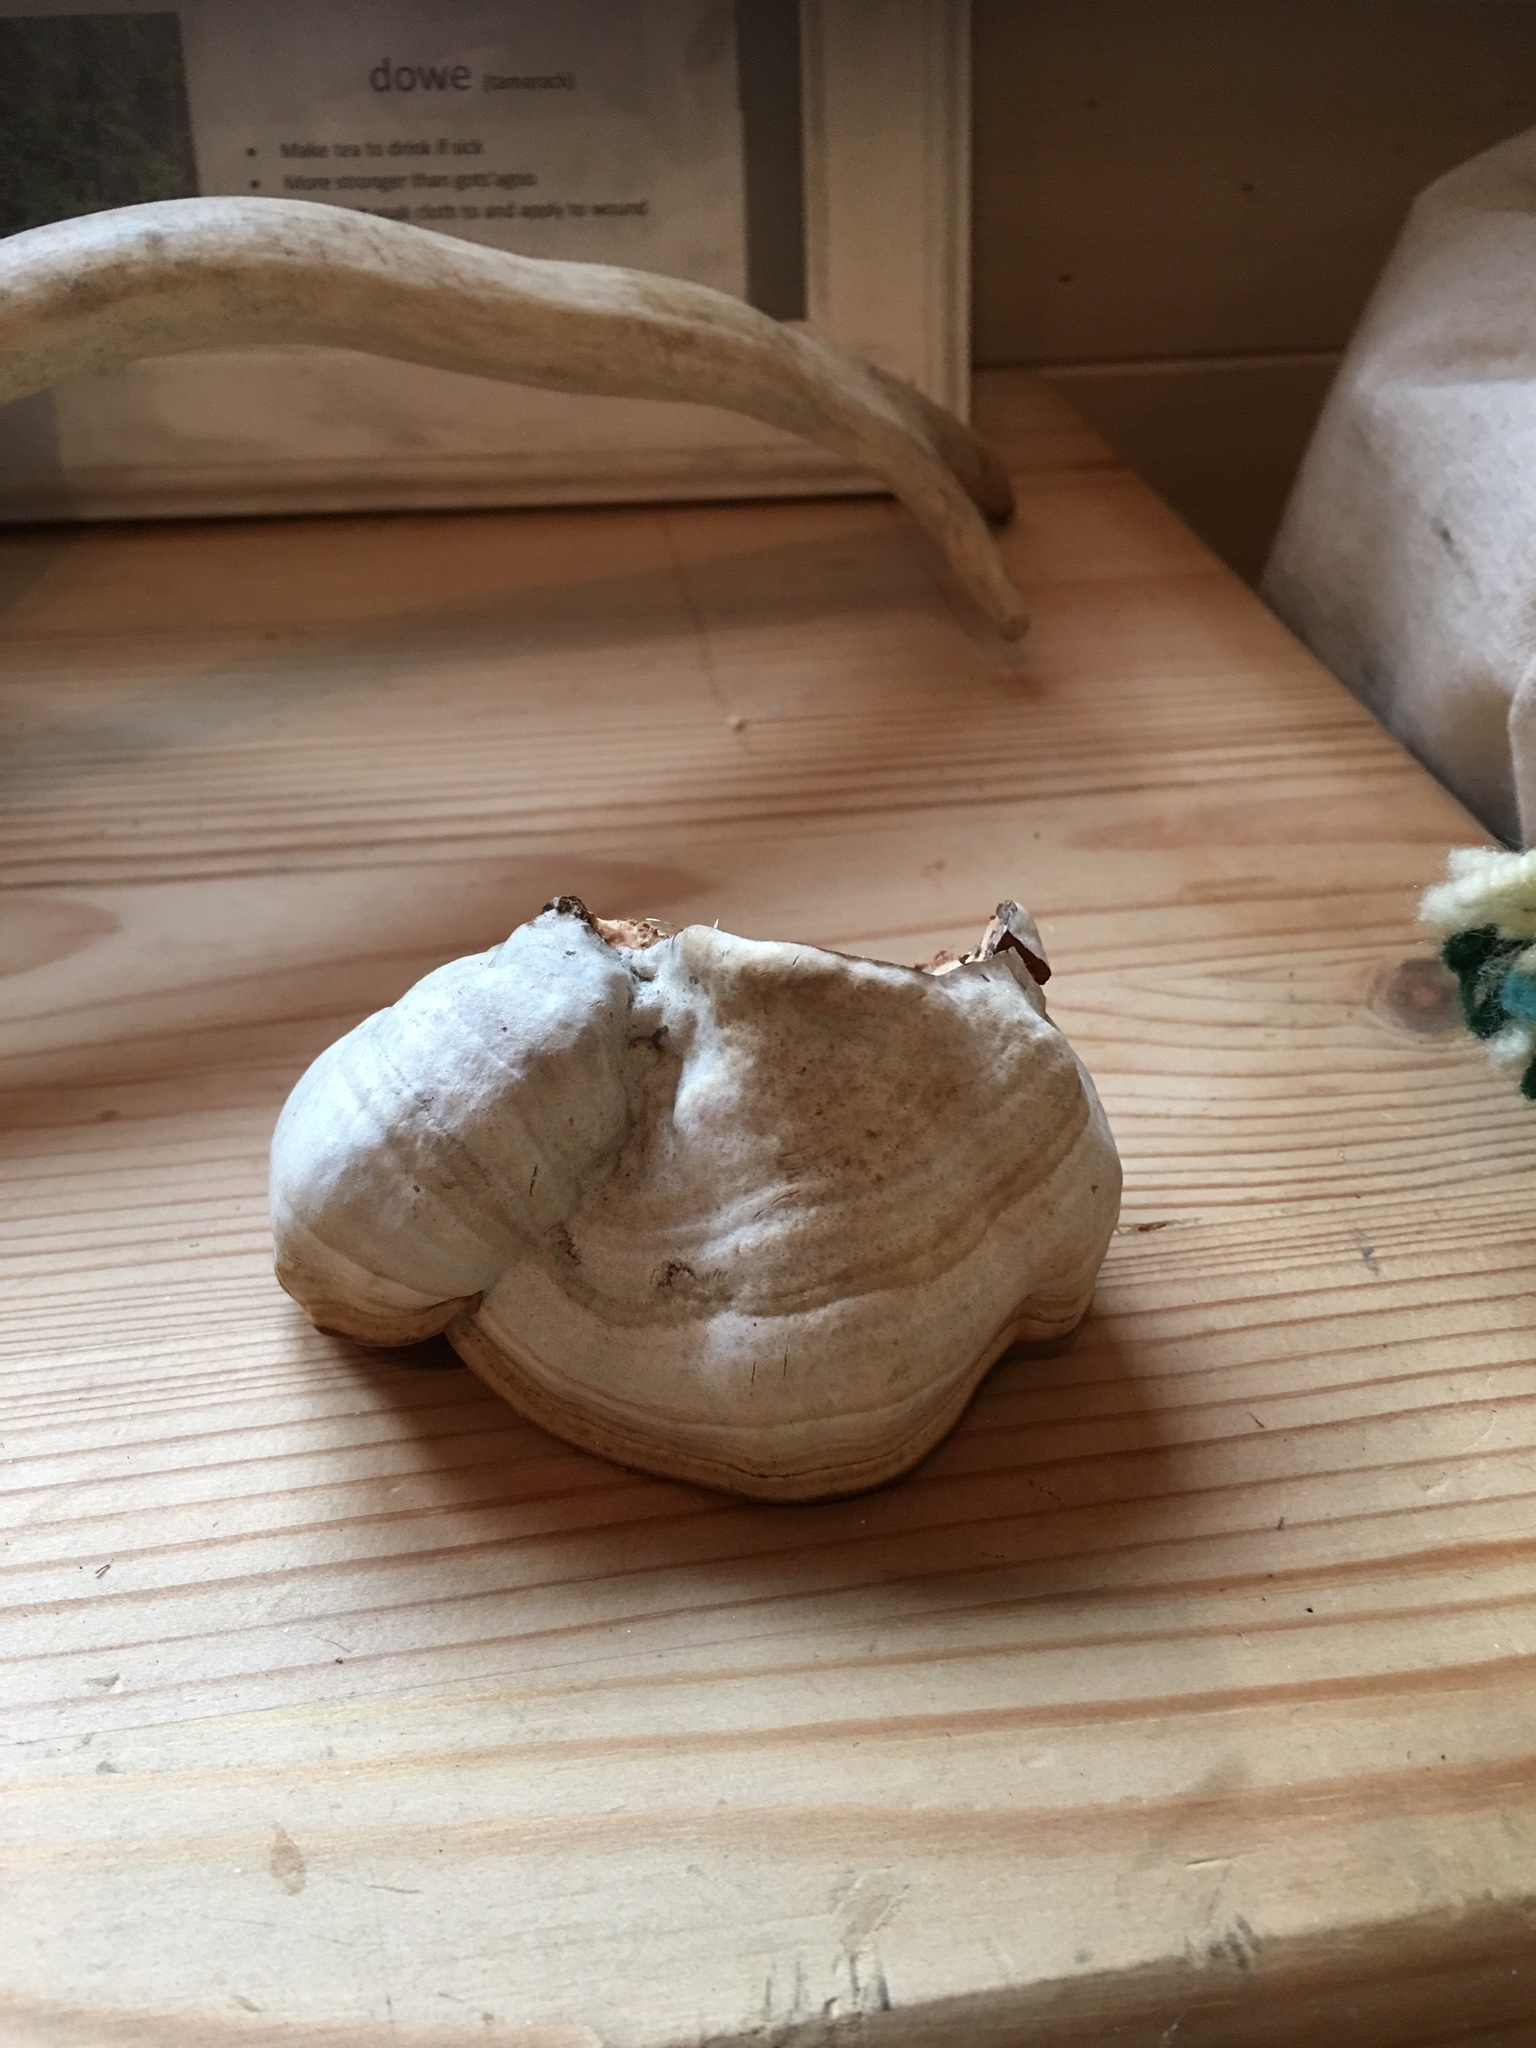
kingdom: Fungi
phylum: Basidiomycota
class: Agaricomycetes
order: Polyporales
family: Polyporaceae
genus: Fomes
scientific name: Fomes fomentarius
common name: Hoof fungus
